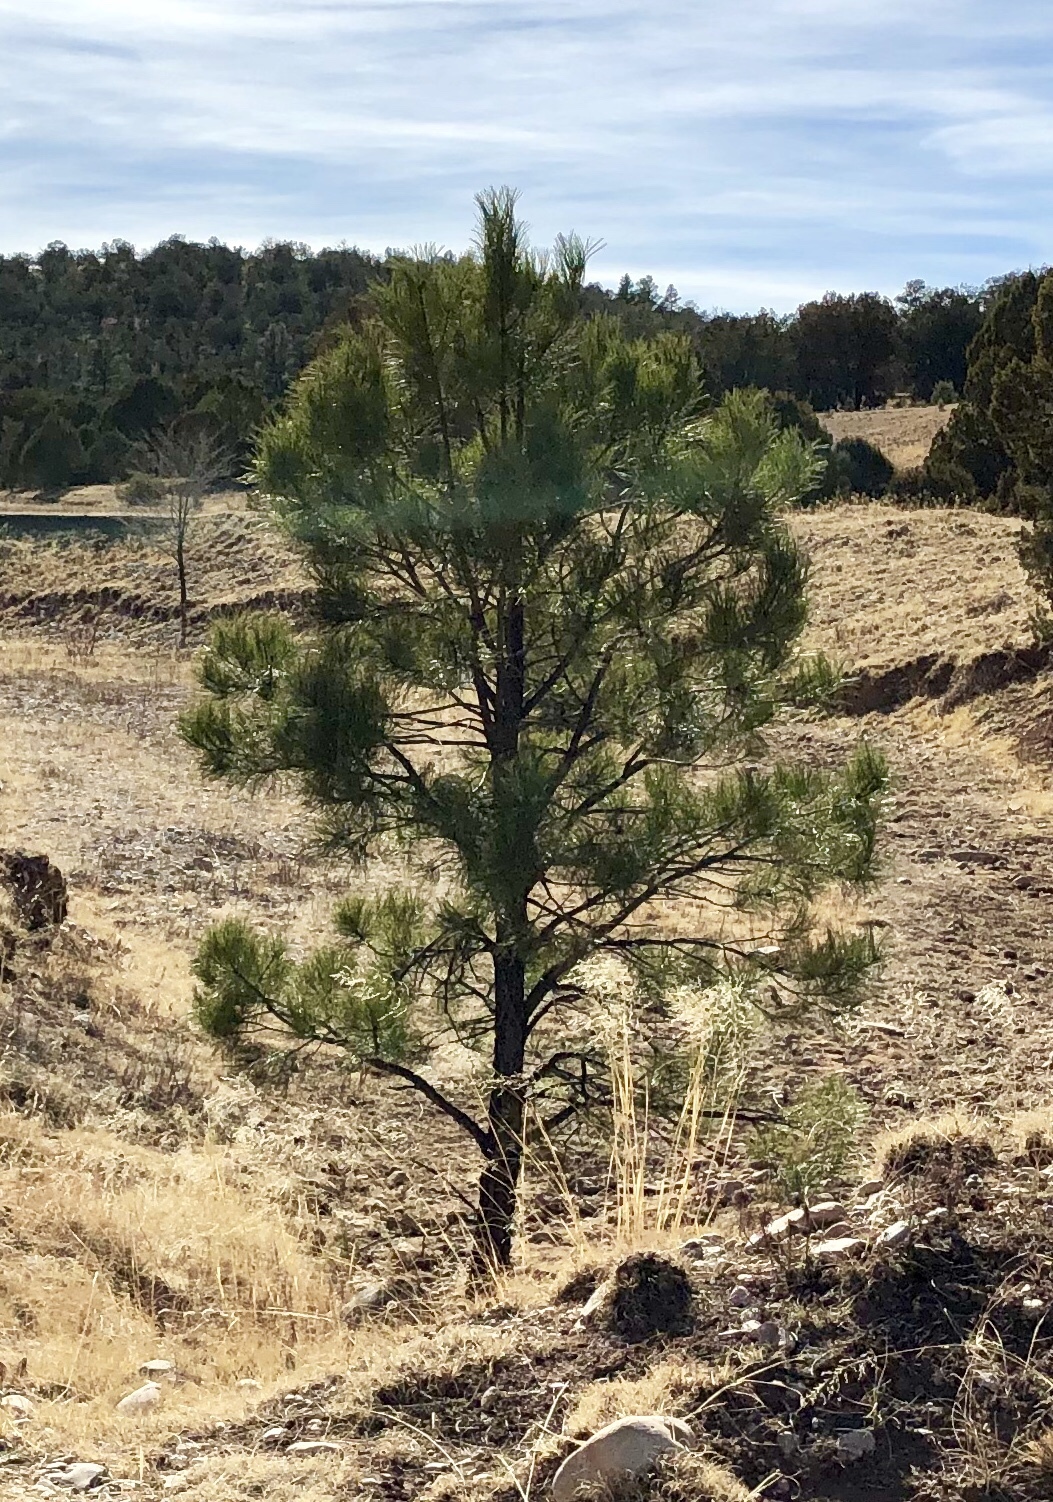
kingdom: Plantae
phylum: Tracheophyta
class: Pinopsida
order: Pinales
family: Pinaceae
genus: Pinus
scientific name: Pinus ponderosa
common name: Western yellow-pine
